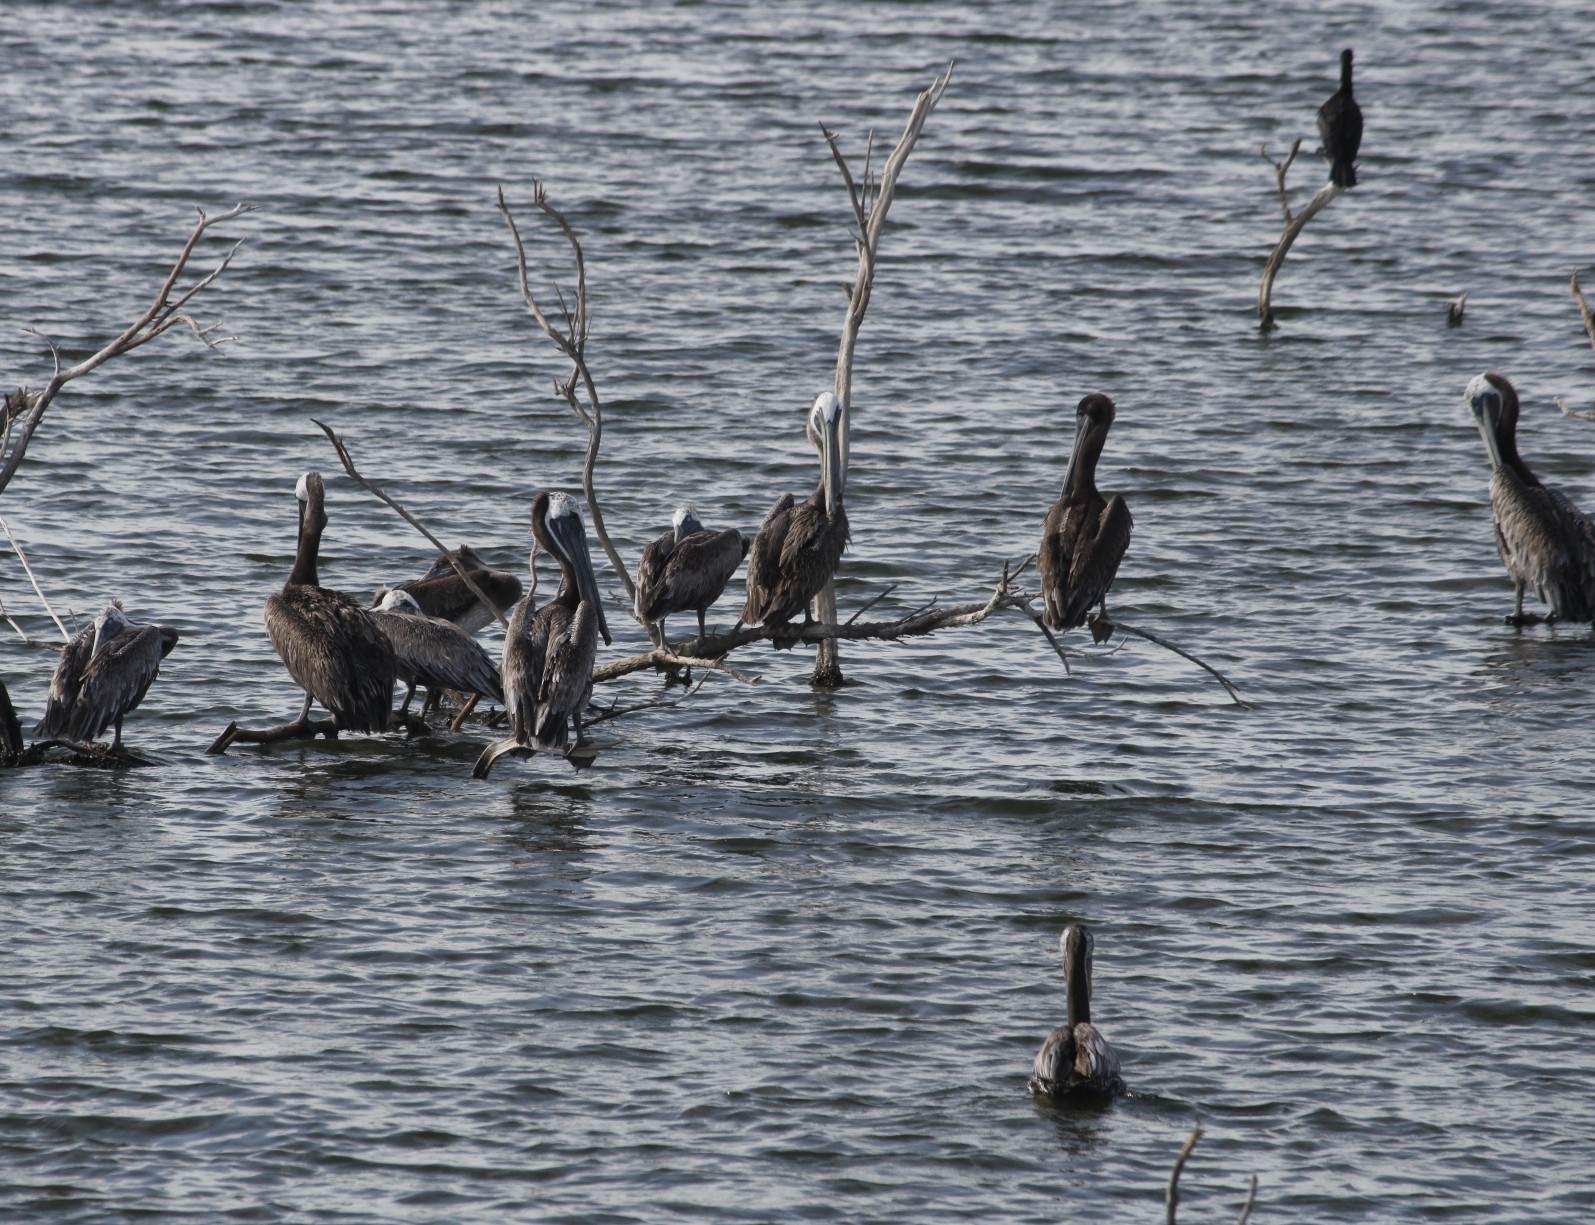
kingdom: Animalia
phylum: Chordata
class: Aves
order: Pelecaniformes
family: Pelecanidae
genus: Pelecanus
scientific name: Pelecanus occidentalis
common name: Brown pelican
